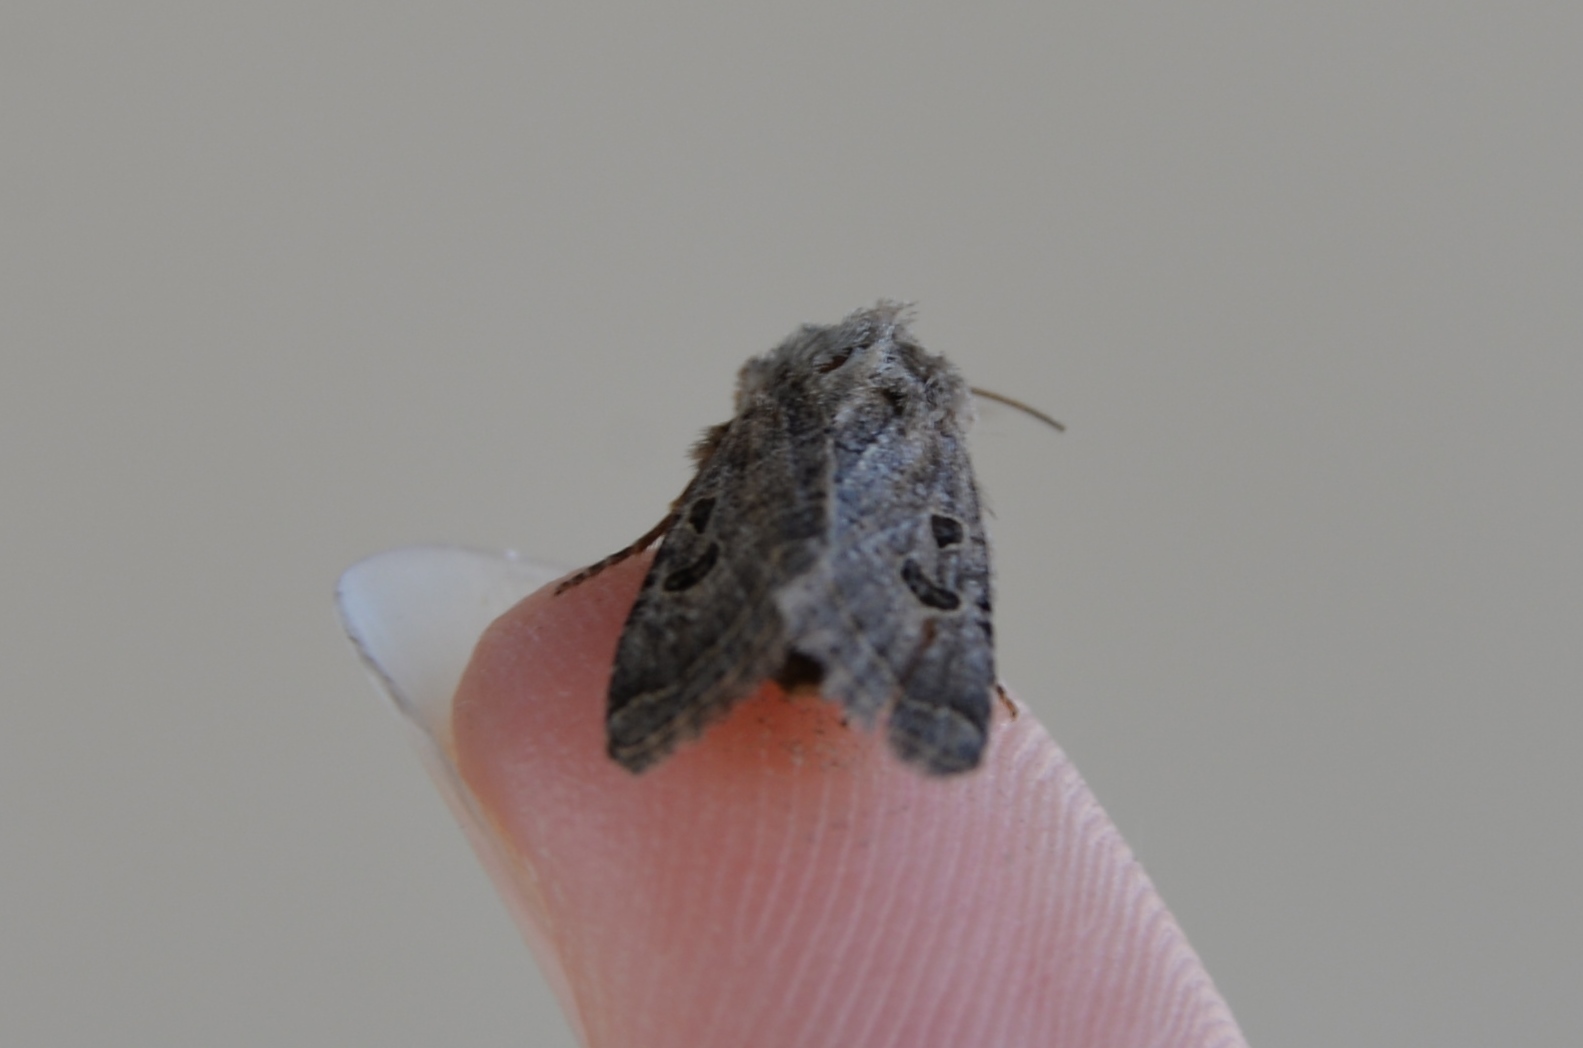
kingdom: Animalia
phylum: Arthropoda
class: Insecta
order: Lepidoptera
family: Noctuidae
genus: Trichopolia
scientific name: Trichopolia
